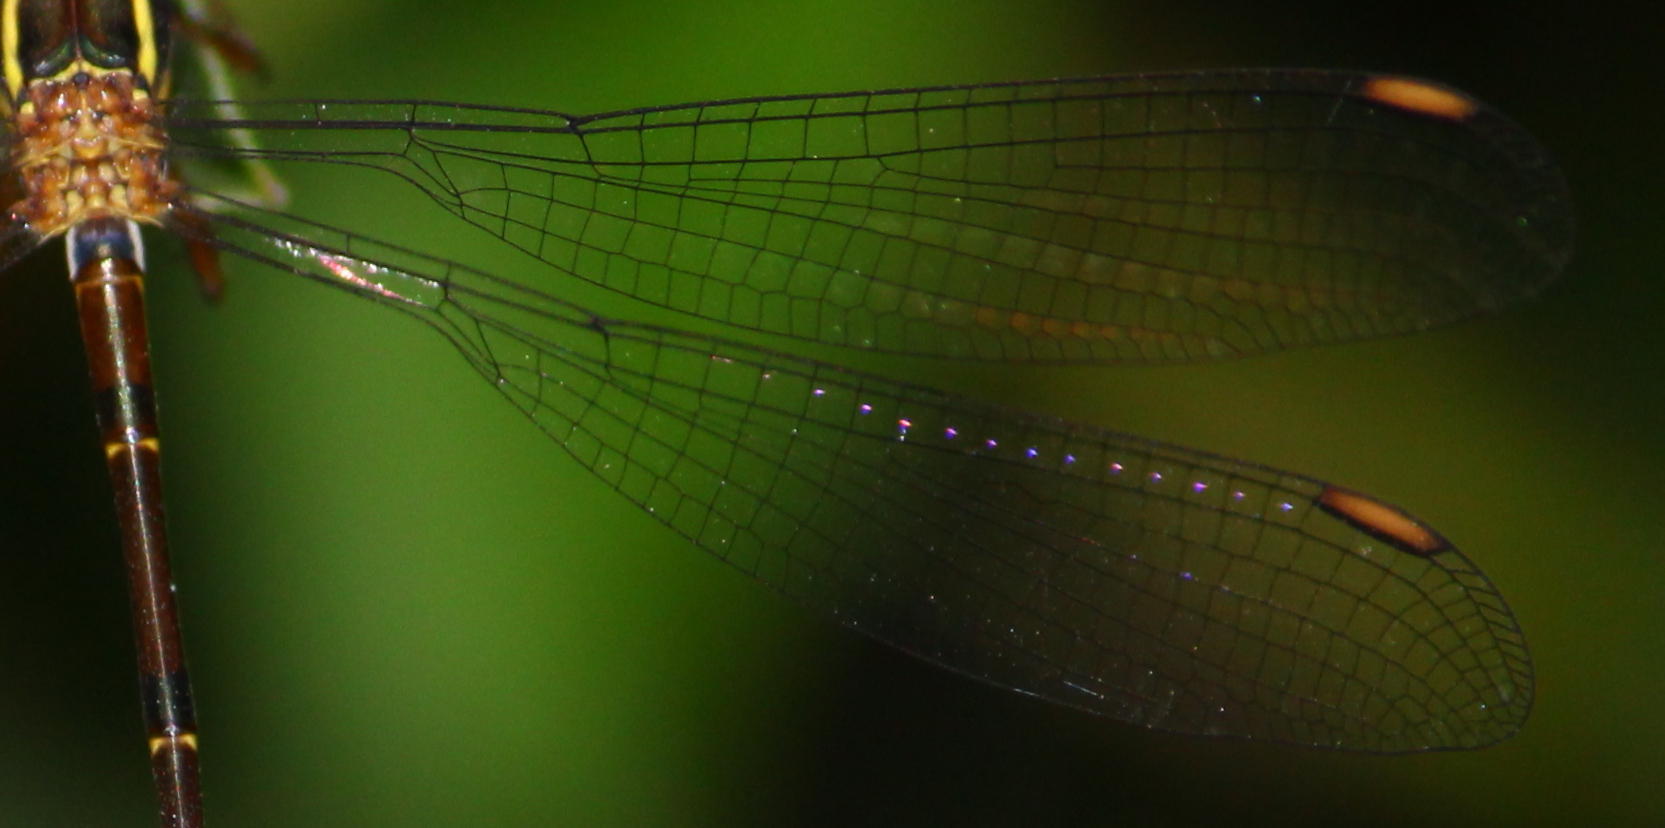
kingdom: Animalia
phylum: Arthropoda
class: Insecta
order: Odonata
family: Synlestidae
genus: Chlorolestes
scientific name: Chlorolestes umbratus
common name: White malachite
